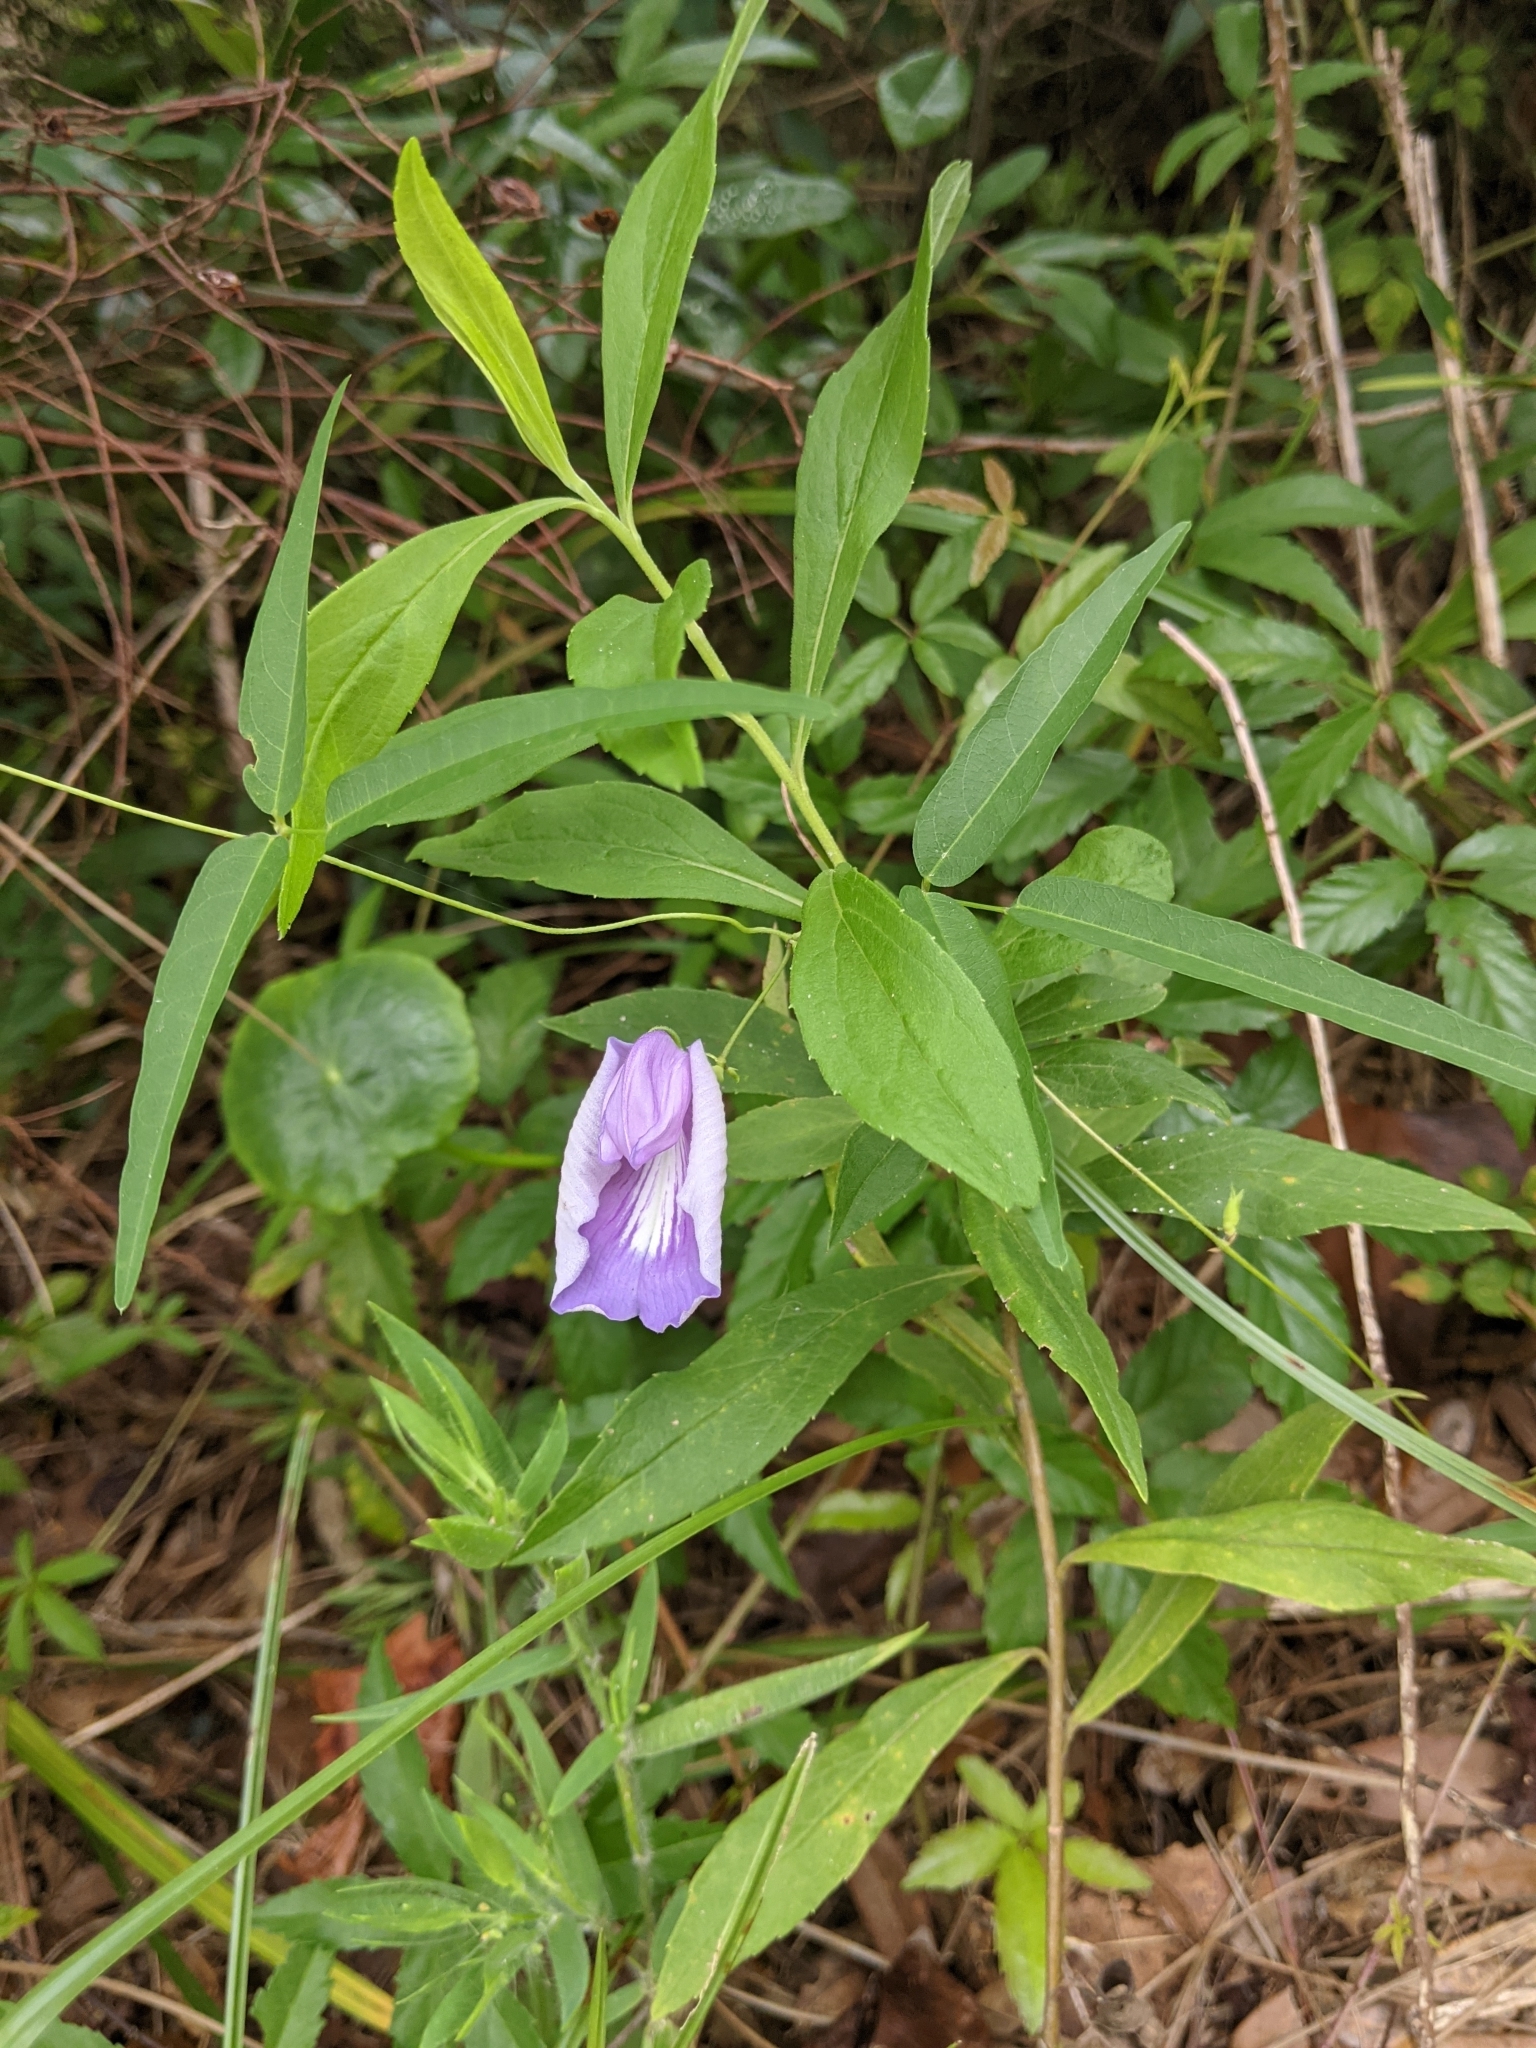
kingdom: Plantae
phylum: Tracheophyta
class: Magnoliopsida
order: Fabales
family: Fabaceae
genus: Centrosema
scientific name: Centrosema virginianum
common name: Butterfly-pea
